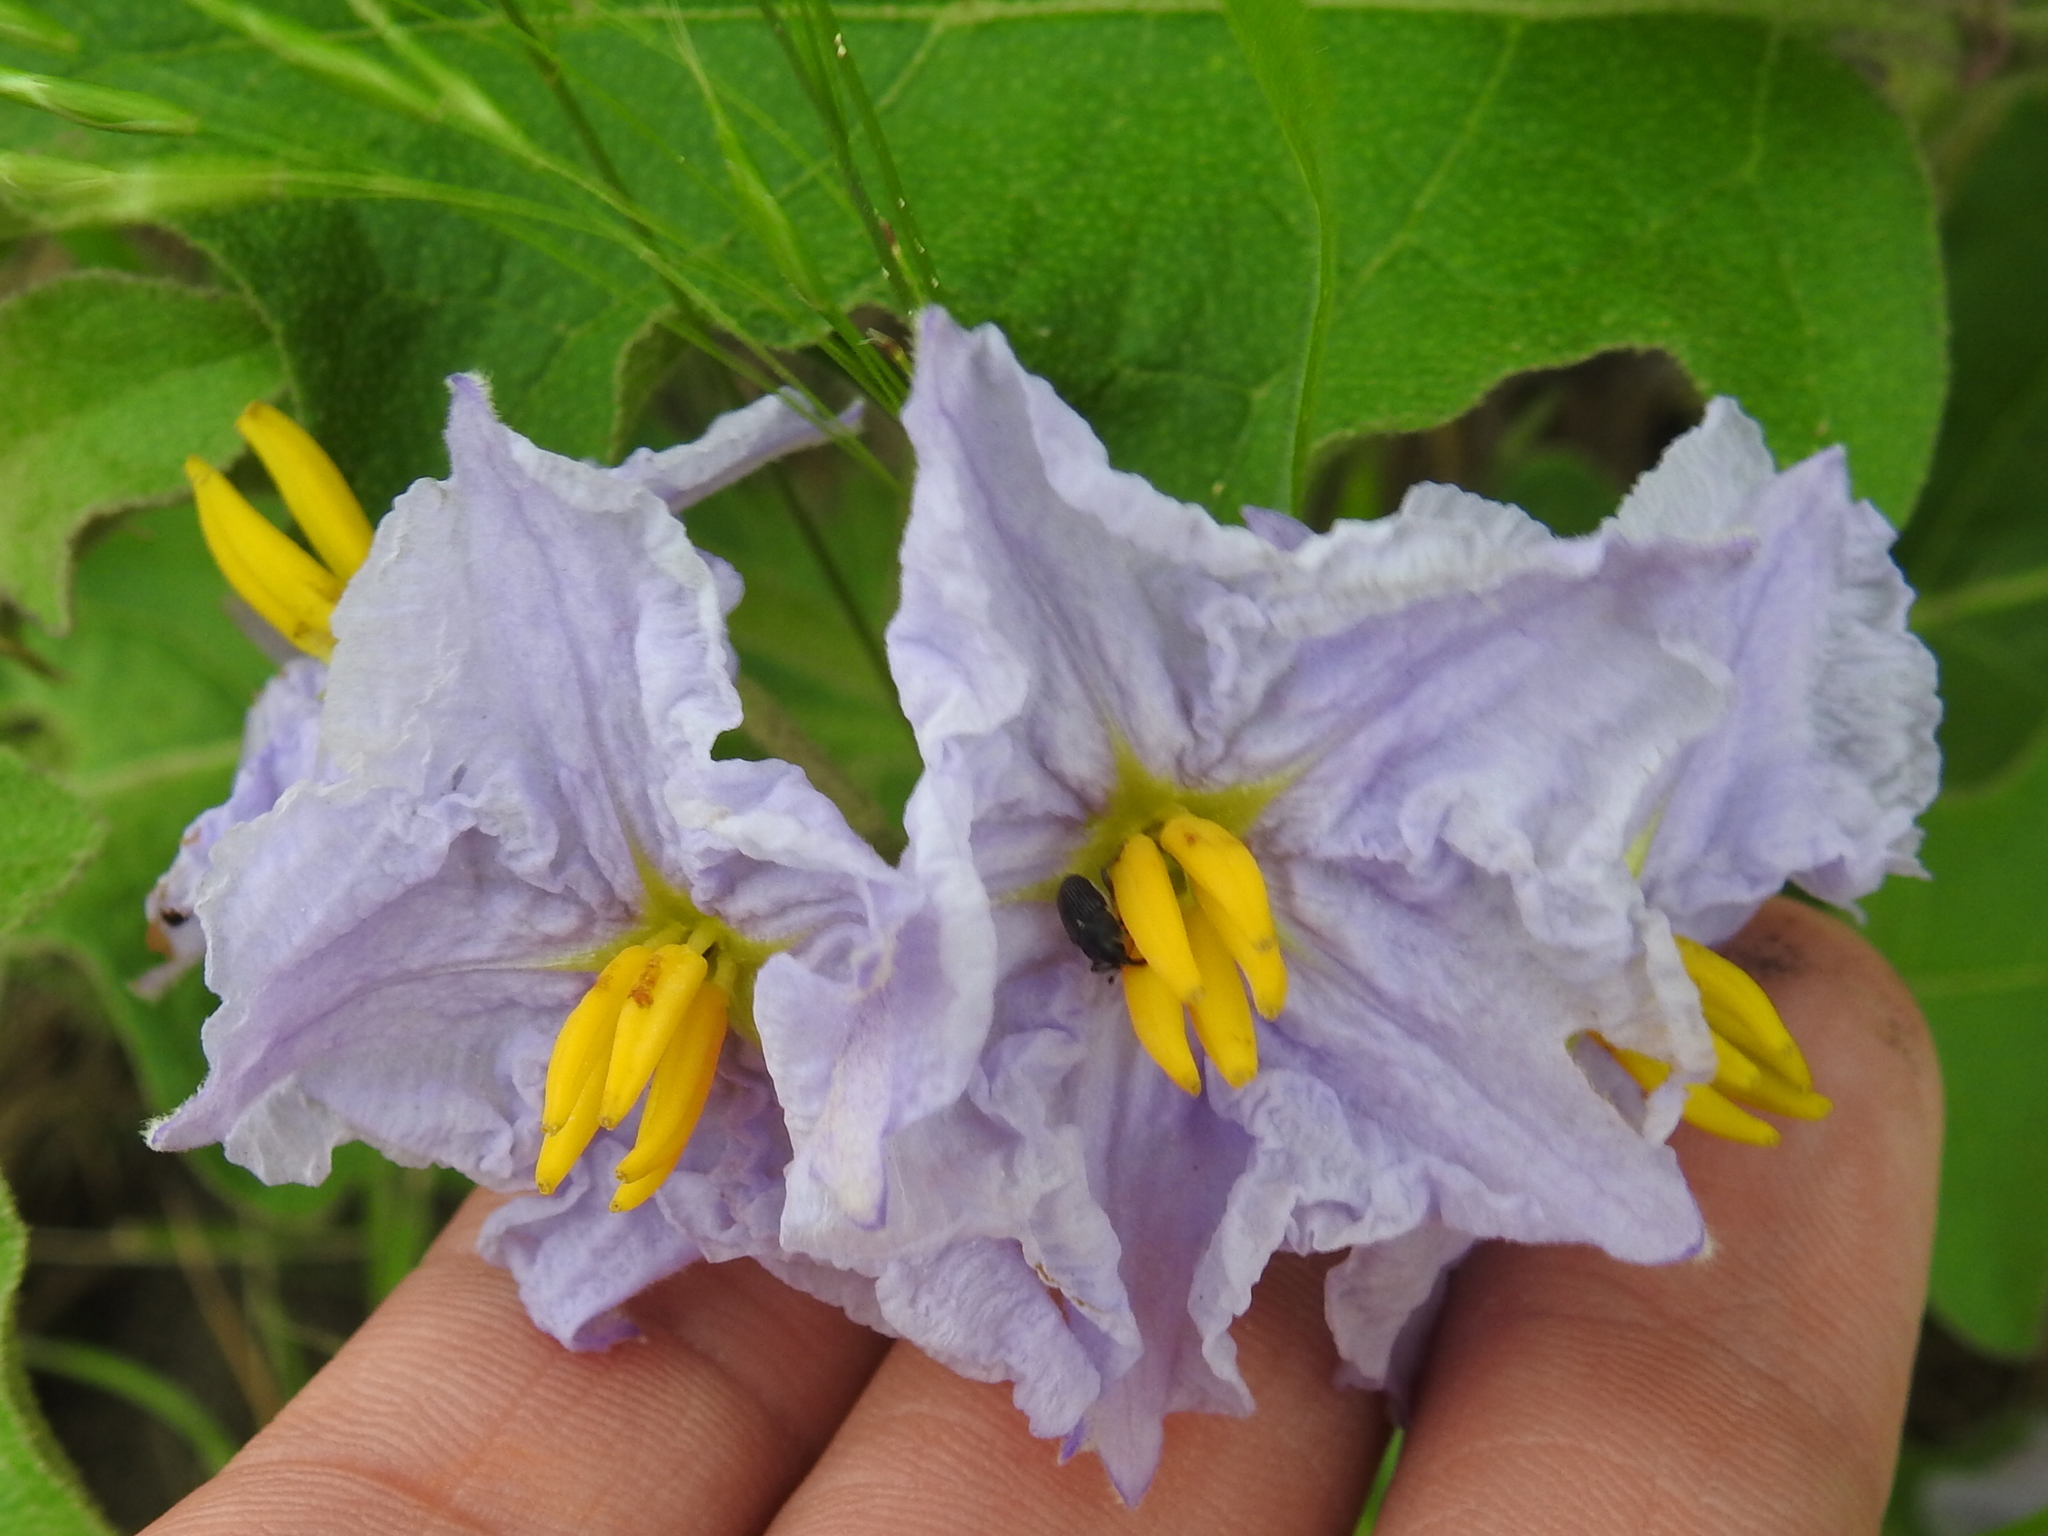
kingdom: Plantae
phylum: Tracheophyta
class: Magnoliopsida
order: Solanales
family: Solanaceae
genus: Solanum
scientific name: Solanum dimidiatum
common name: Carolina horse-nettle
